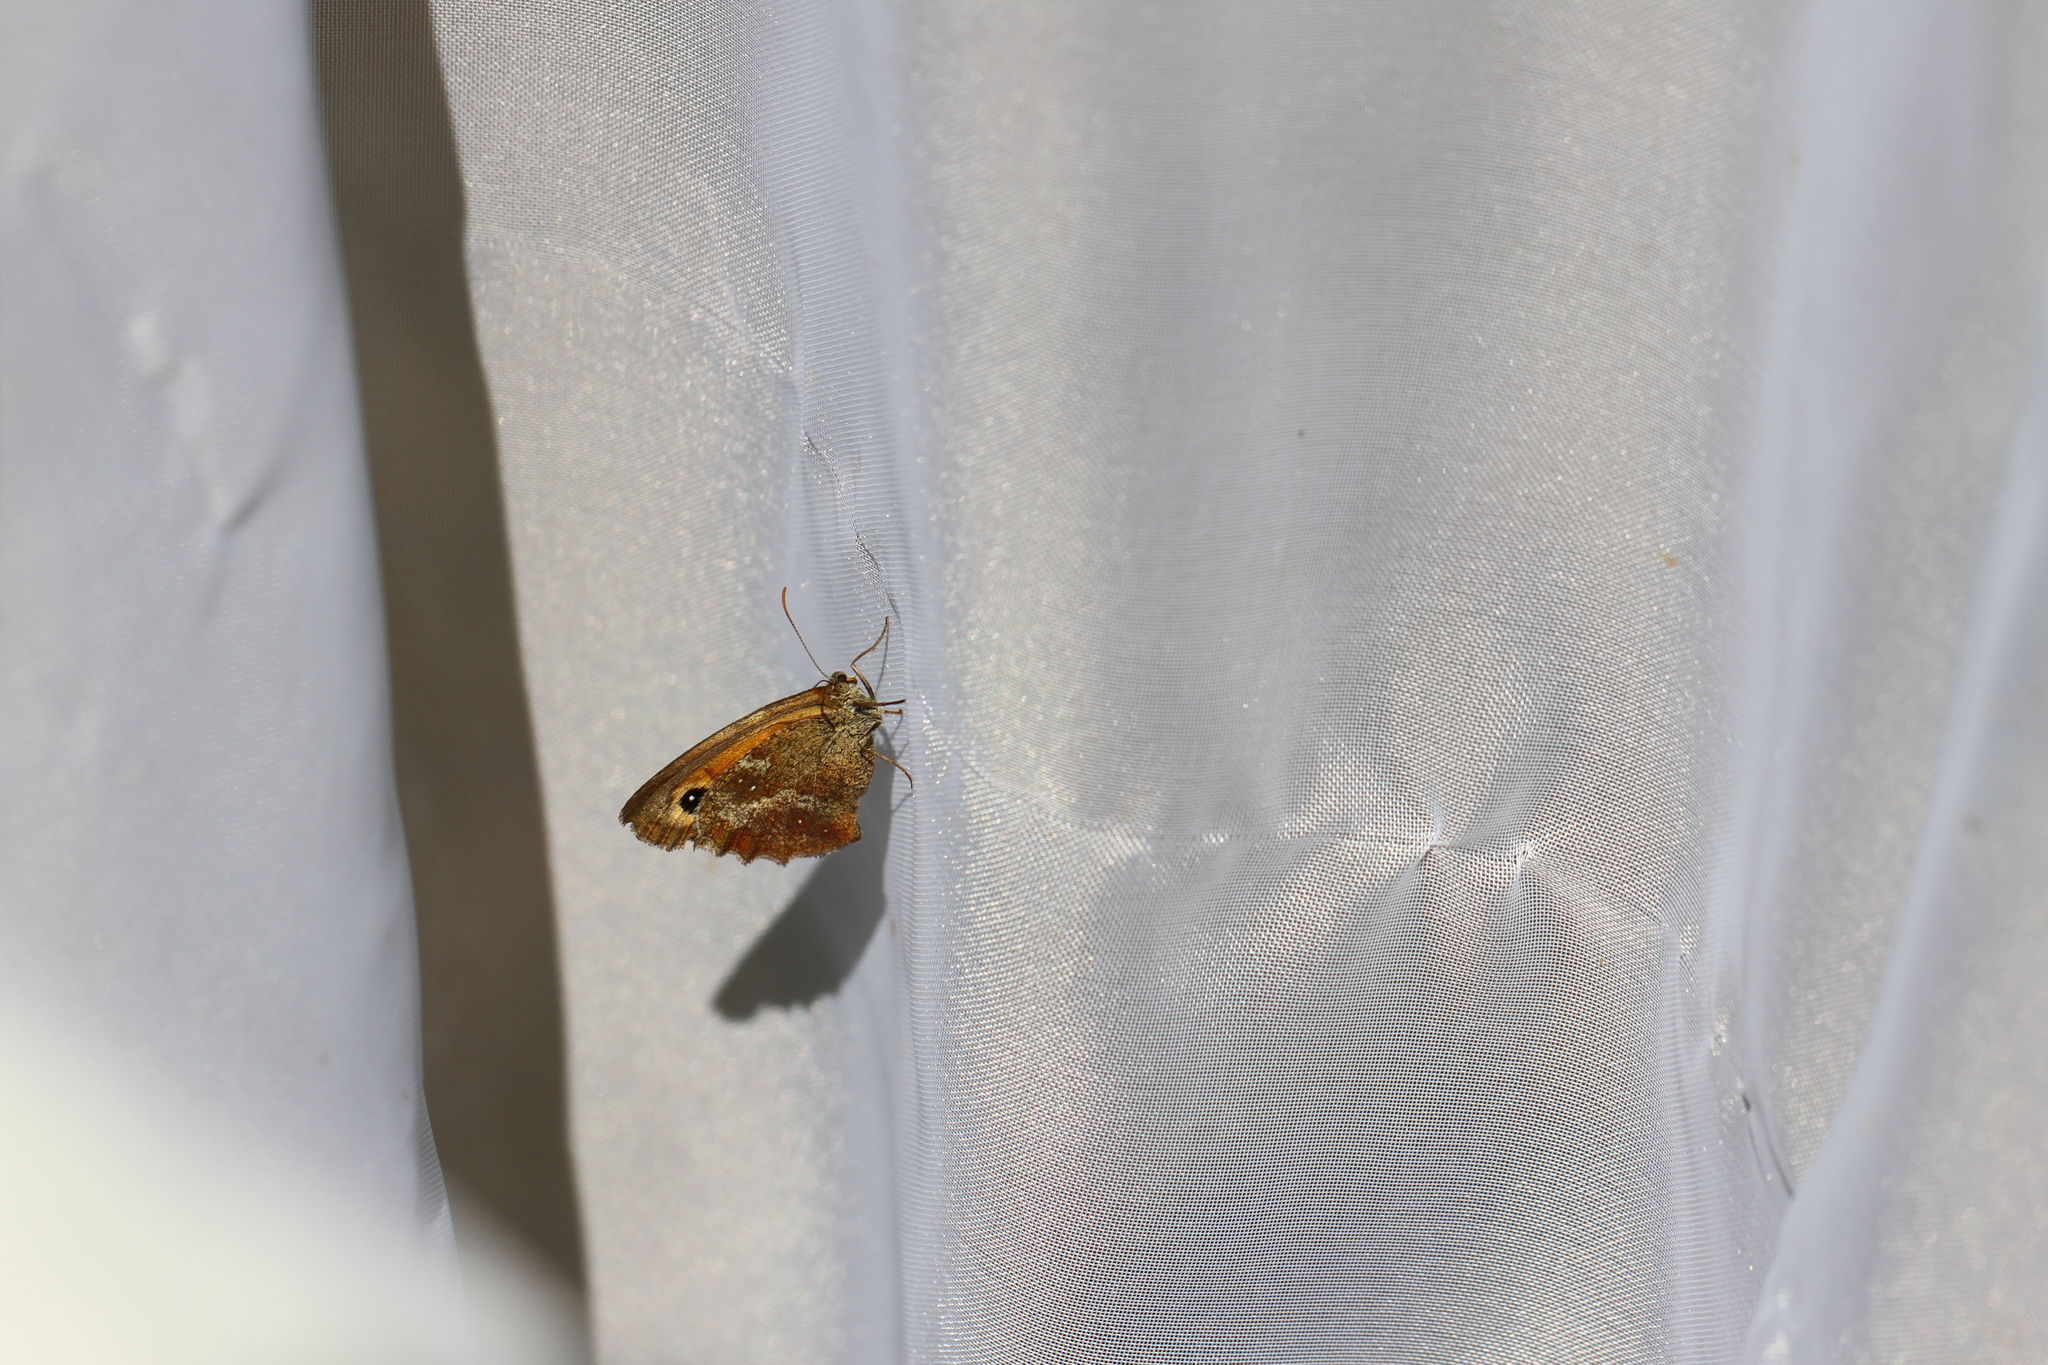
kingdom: Animalia
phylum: Arthropoda
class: Insecta
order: Lepidoptera
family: Nymphalidae
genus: Pyronia
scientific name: Pyronia tithonus
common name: Gatekeeper
